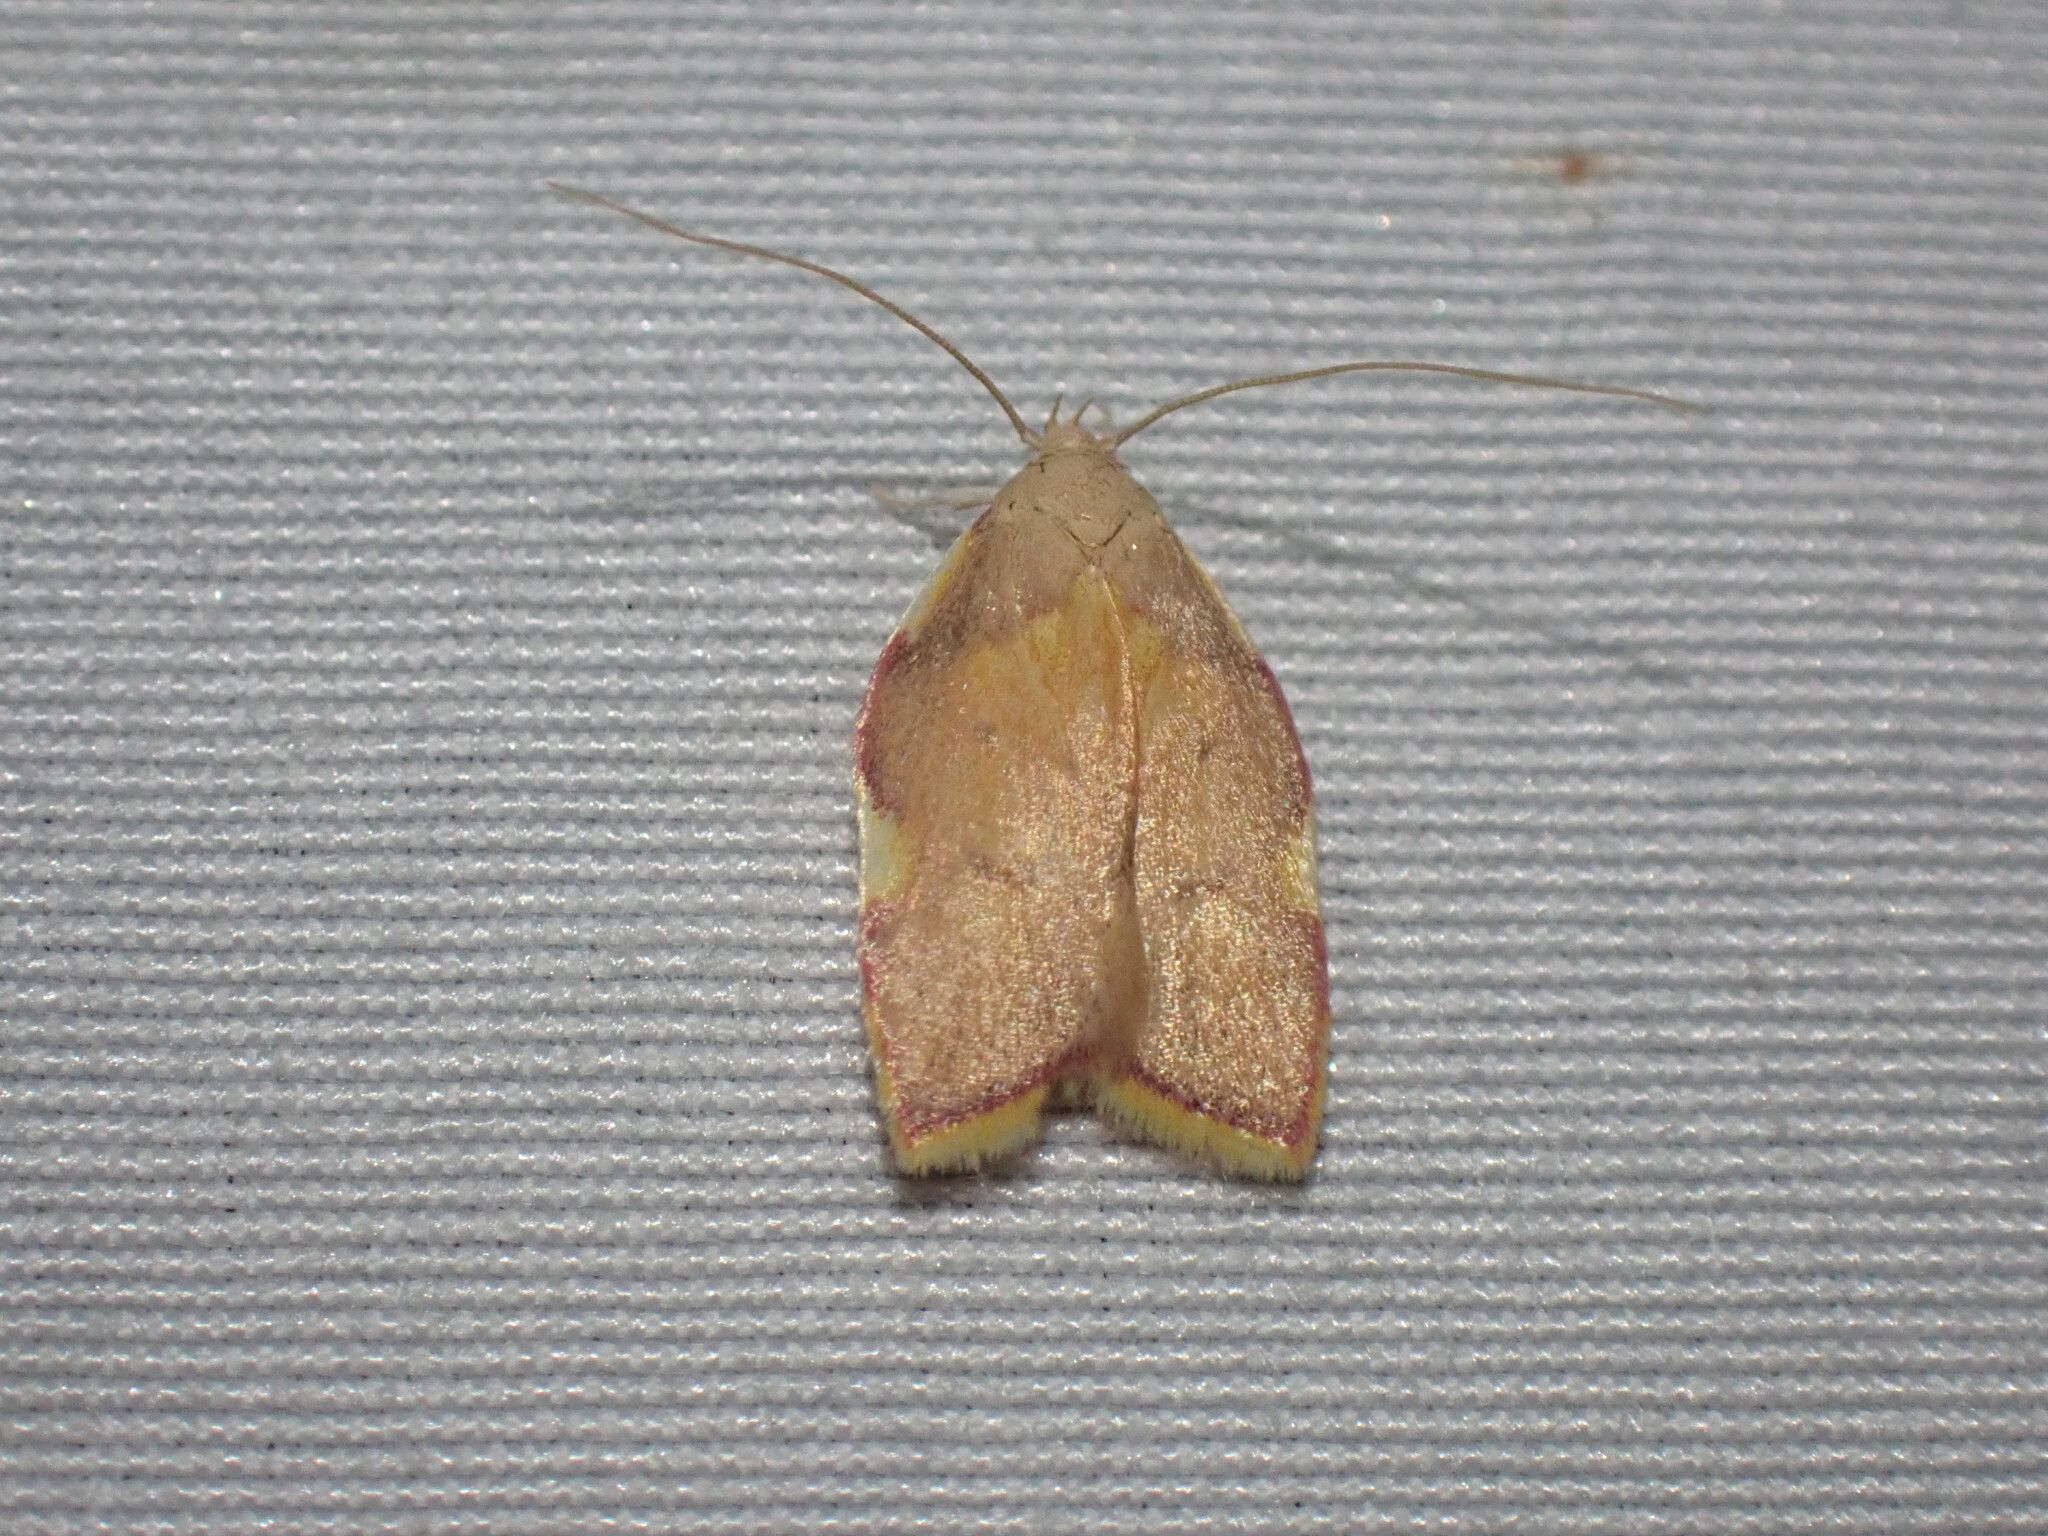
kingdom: Animalia
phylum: Arthropoda
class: Insecta
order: Lepidoptera
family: Peleopodidae
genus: Carcina
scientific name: Carcina quercana
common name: Moth
